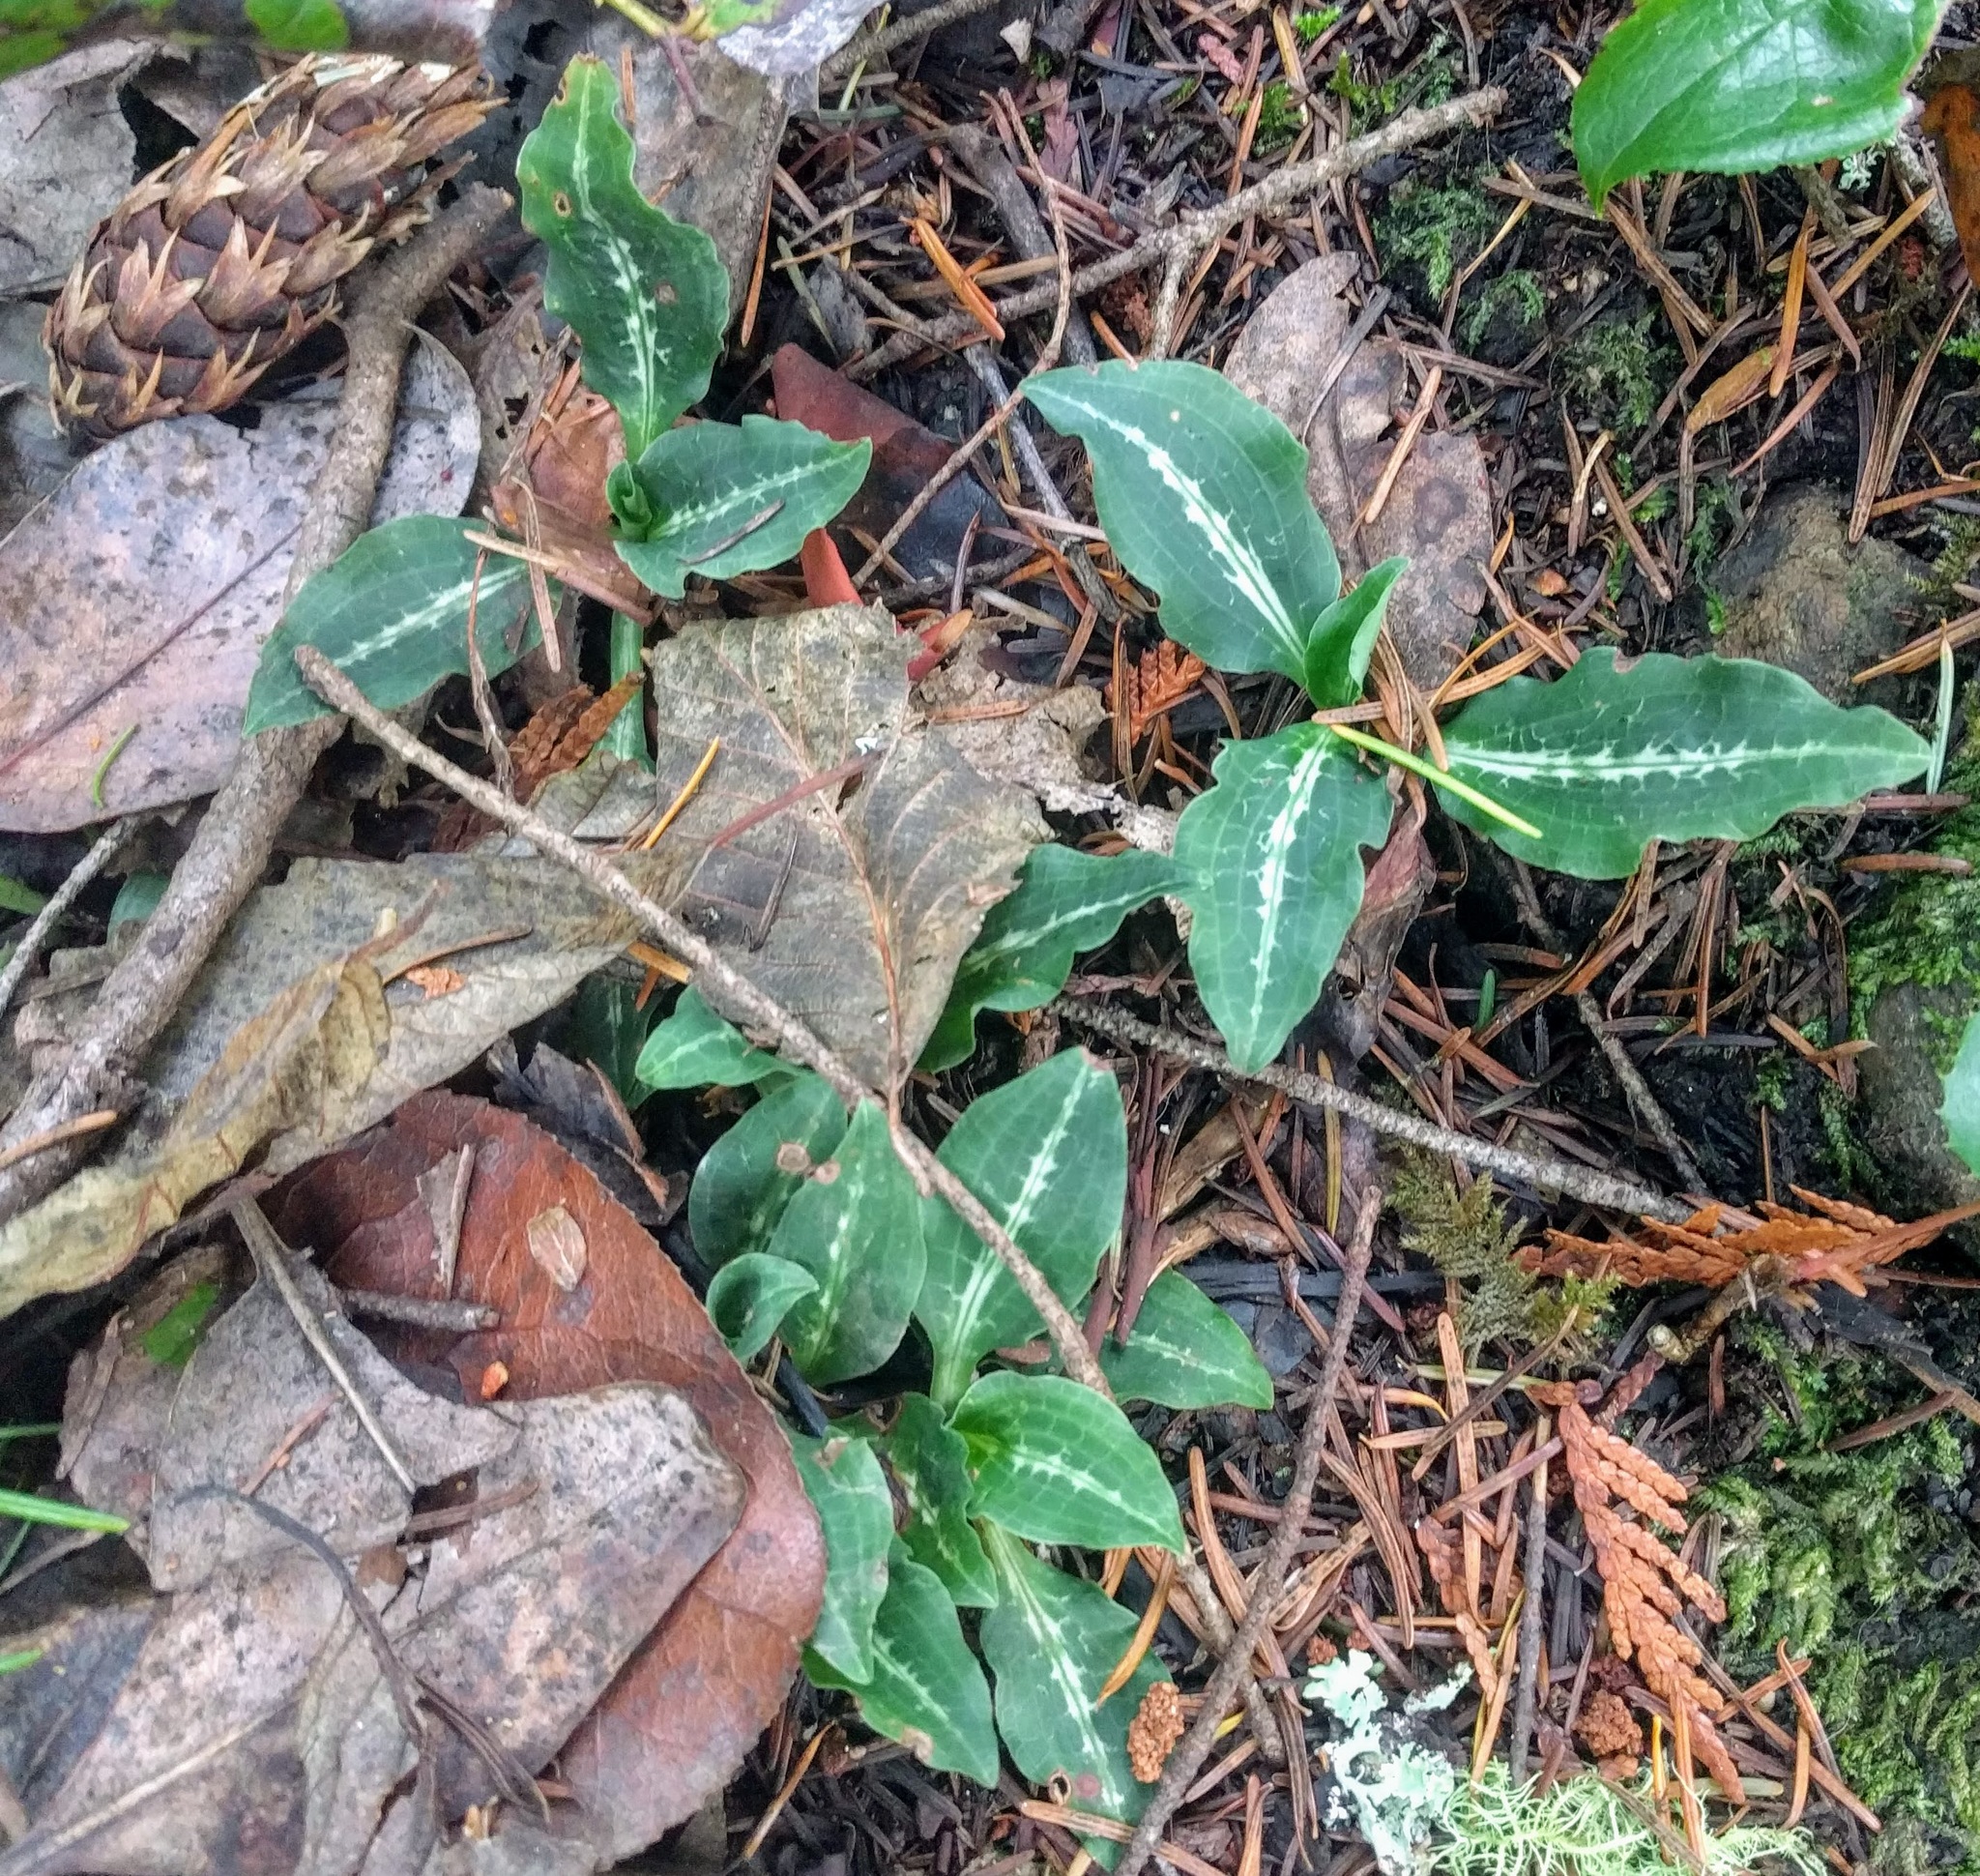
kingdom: Plantae
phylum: Tracheophyta
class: Liliopsida
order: Asparagales
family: Orchidaceae
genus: Goodyera
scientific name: Goodyera oblongifolia
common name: Giant rattlesnake-plantain
